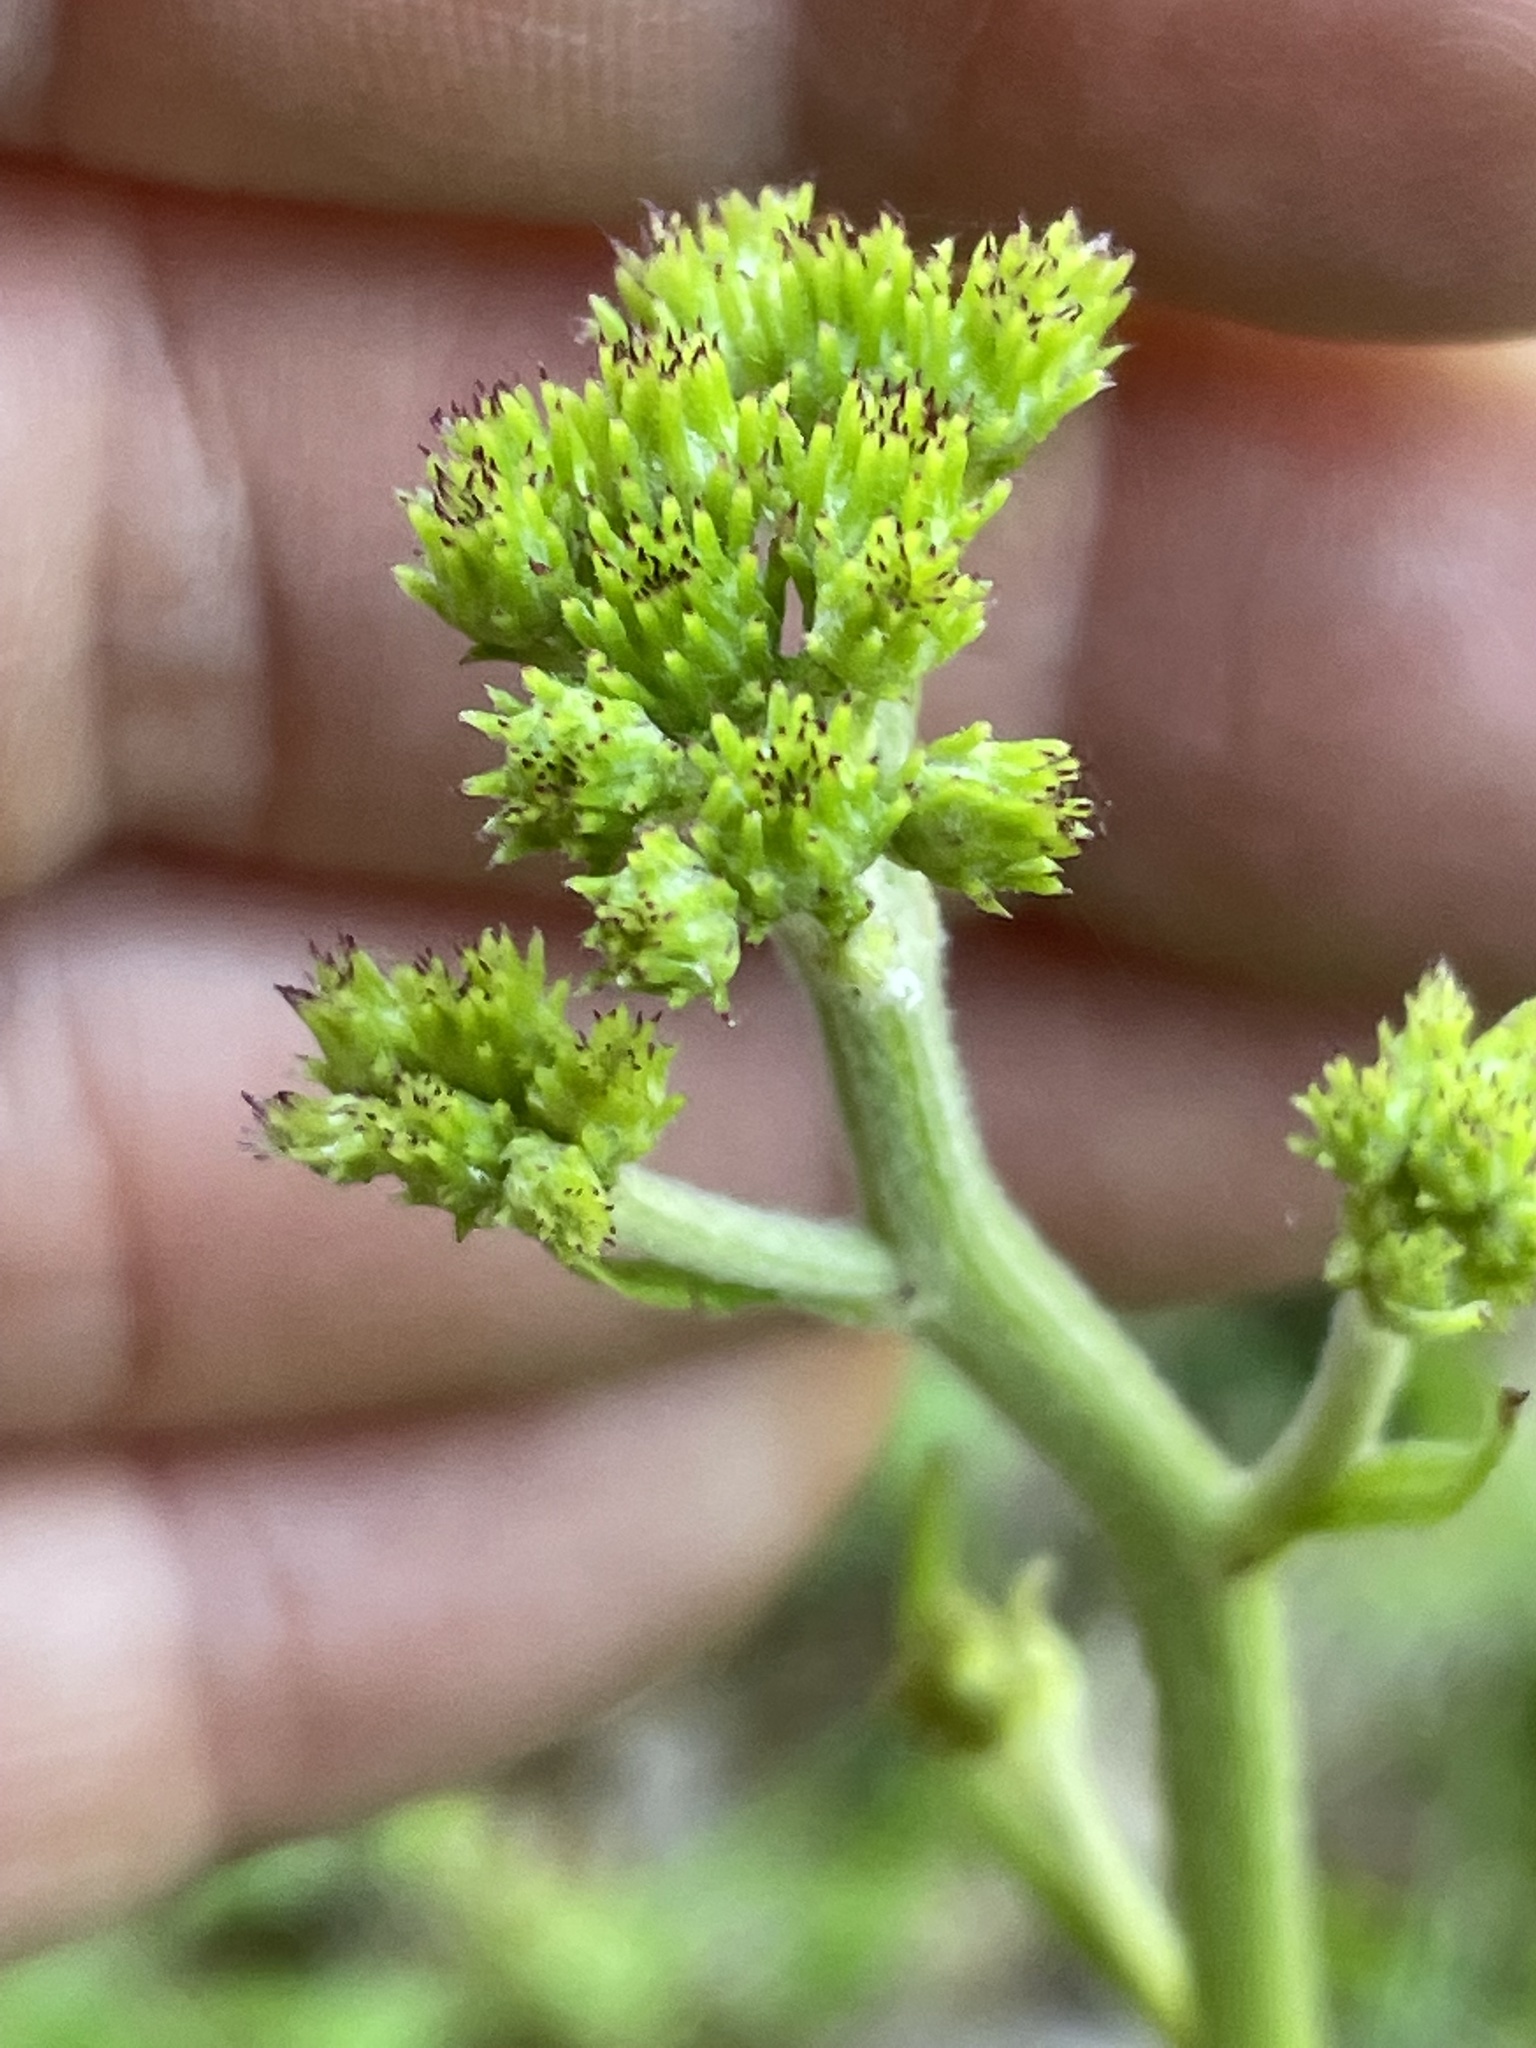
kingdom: Plantae
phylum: Tracheophyta
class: Magnoliopsida
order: Asterales
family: Asteraceae
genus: Vernonia
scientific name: Vernonia acaulis
